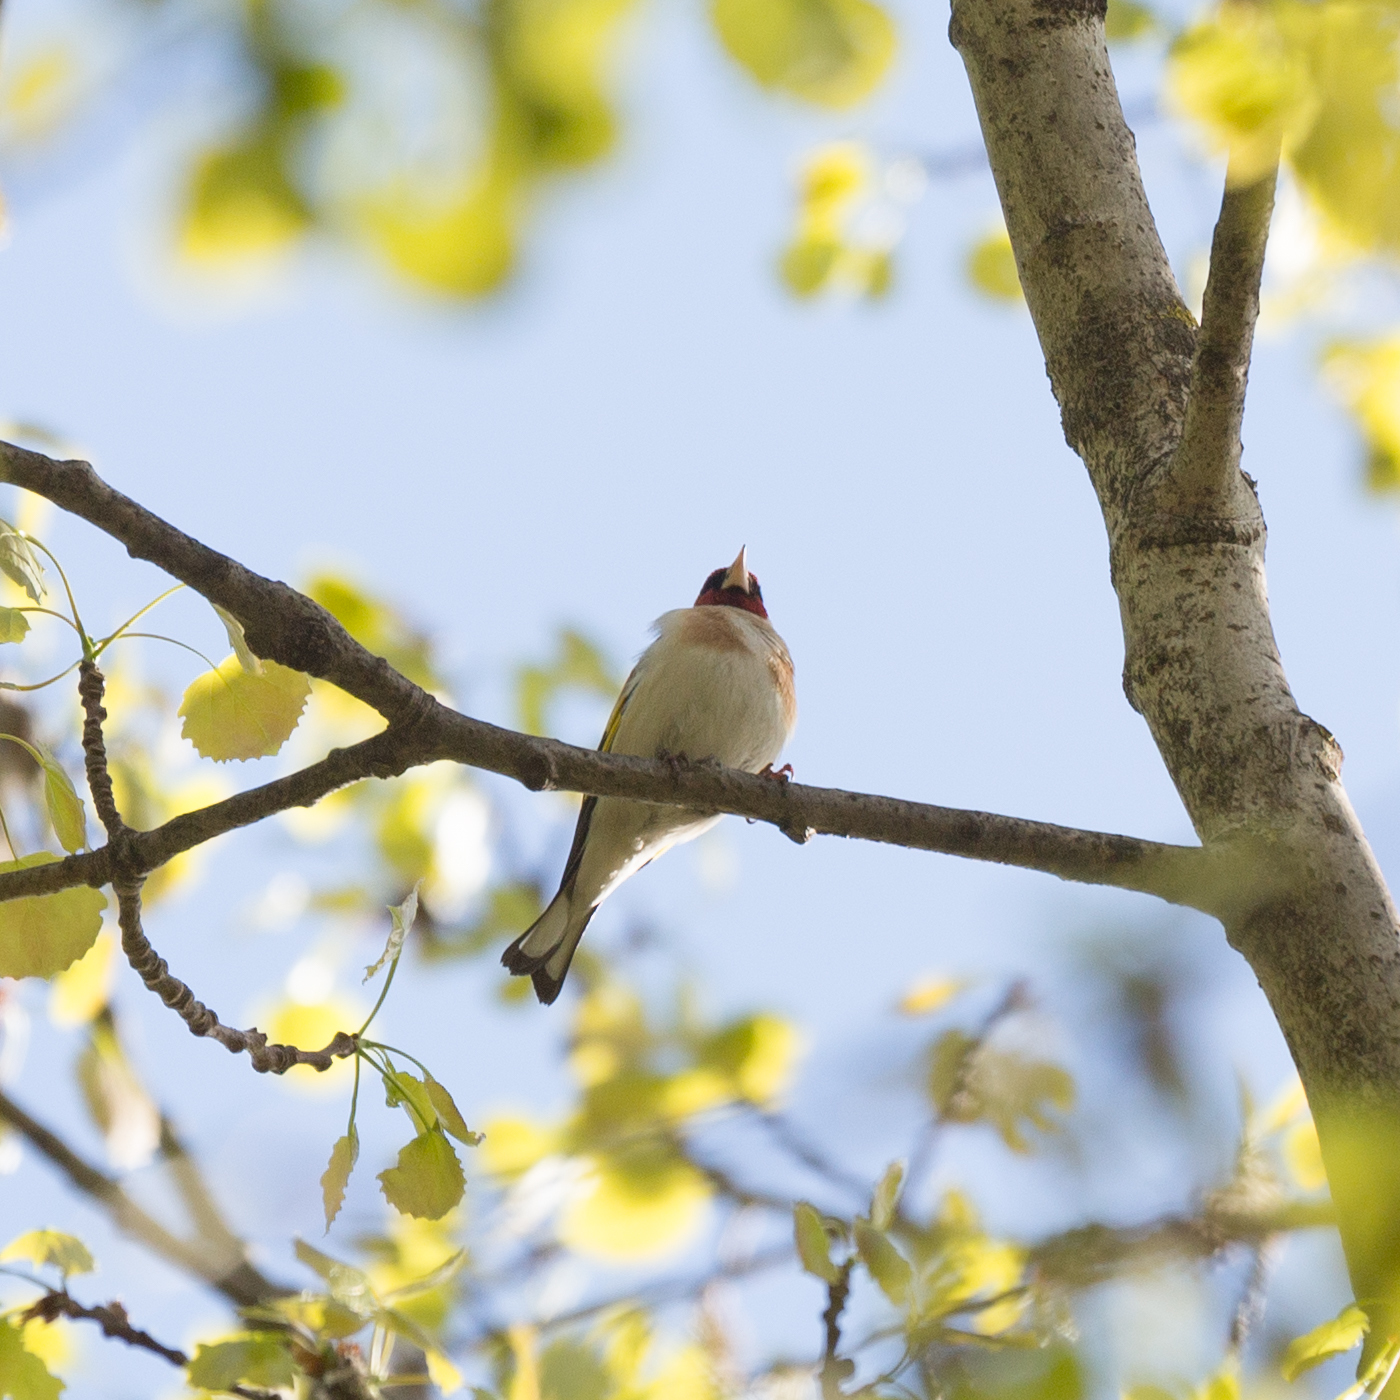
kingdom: Animalia
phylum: Chordata
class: Aves
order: Passeriformes
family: Fringillidae
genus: Carduelis
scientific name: Carduelis carduelis
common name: European goldfinch
